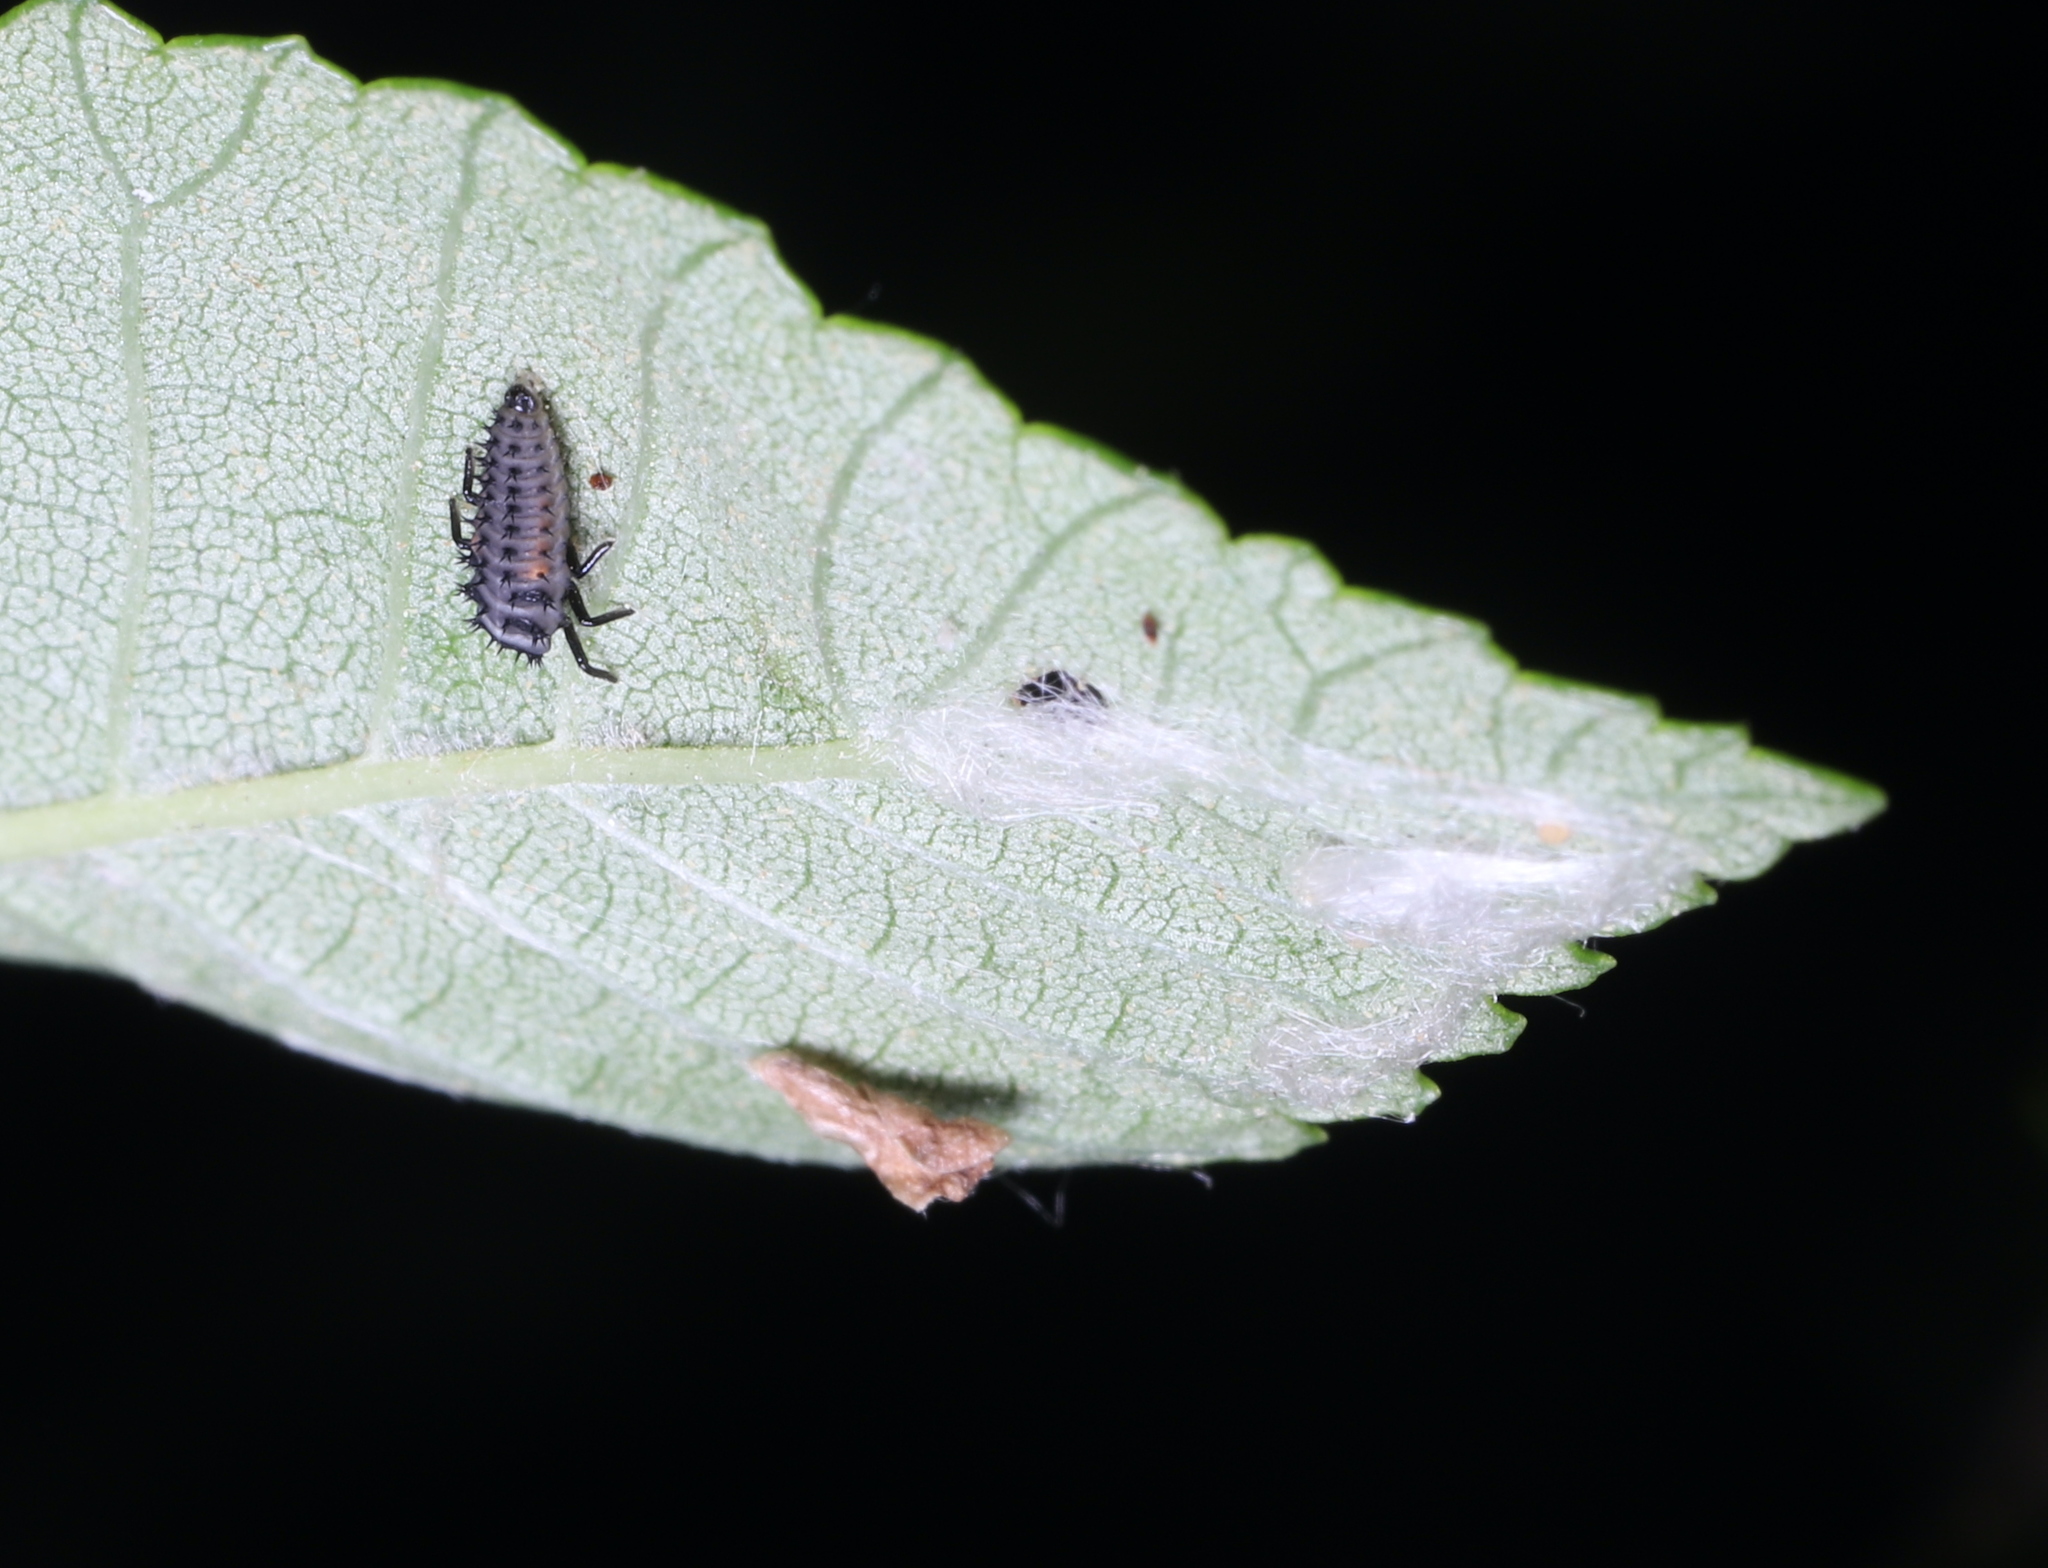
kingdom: Animalia
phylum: Arthropoda
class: Insecta
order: Coleoptera
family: Coccinellidae
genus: Harmonia
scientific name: Harmonia axyridis
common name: Harlequin ladybird
